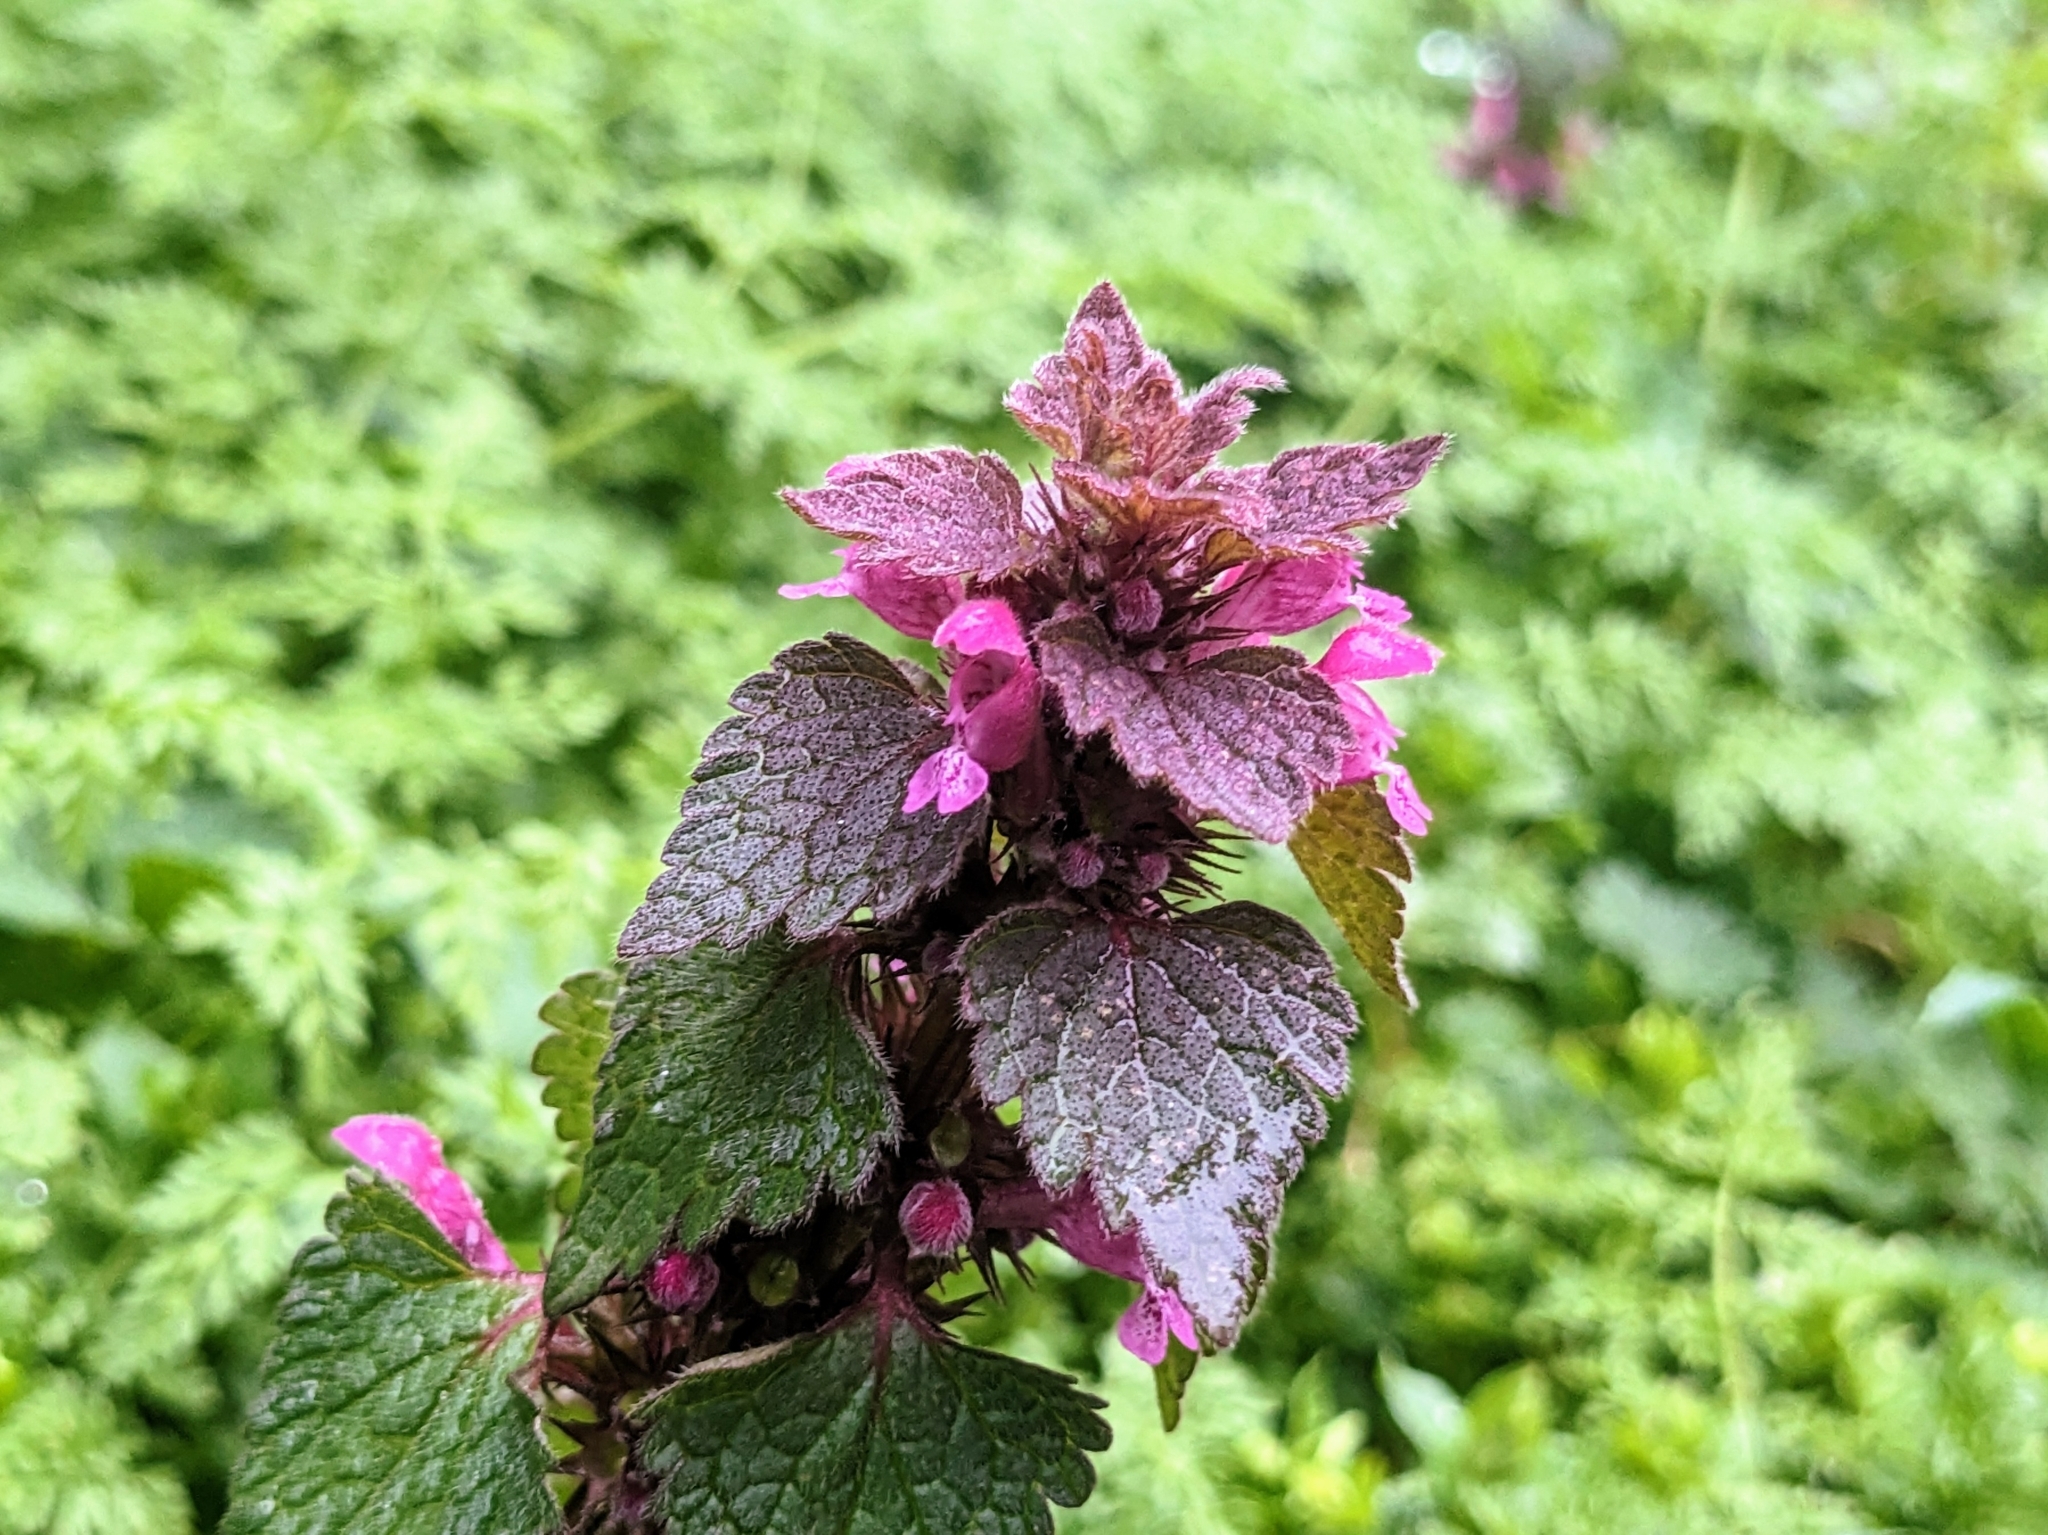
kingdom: Plantae
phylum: Tracheophyta
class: Magnoliopsida
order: Lamiales
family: Lamiaceae
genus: Lamium
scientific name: Lamium purpureum
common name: Red dead-nettle
